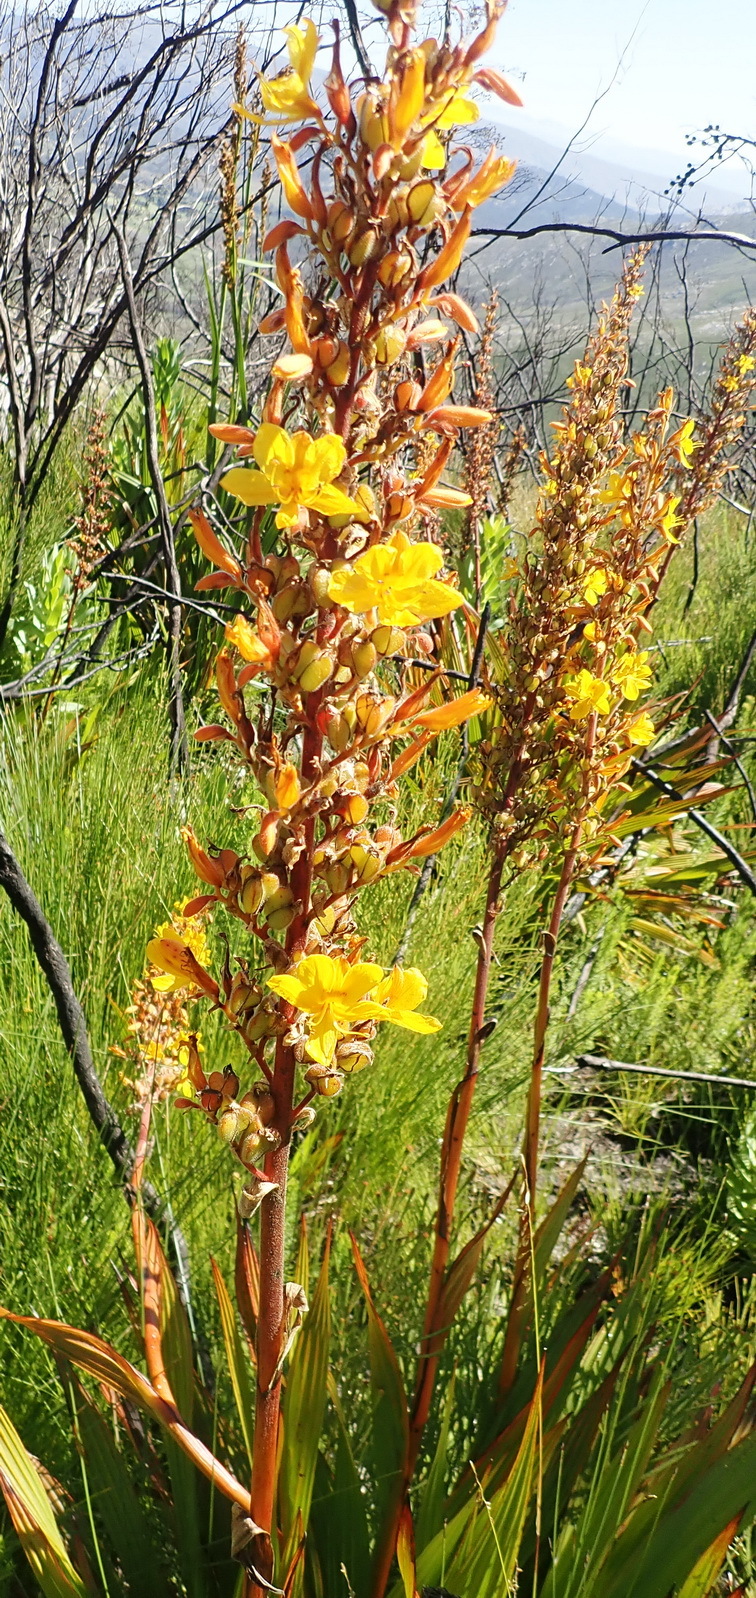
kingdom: Plantae
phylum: Tracheophyta
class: Liliopsida
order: Commelinales
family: Haemodoraceae
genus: Wachendorfia
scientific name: Wachendorfia thyrsiflora
